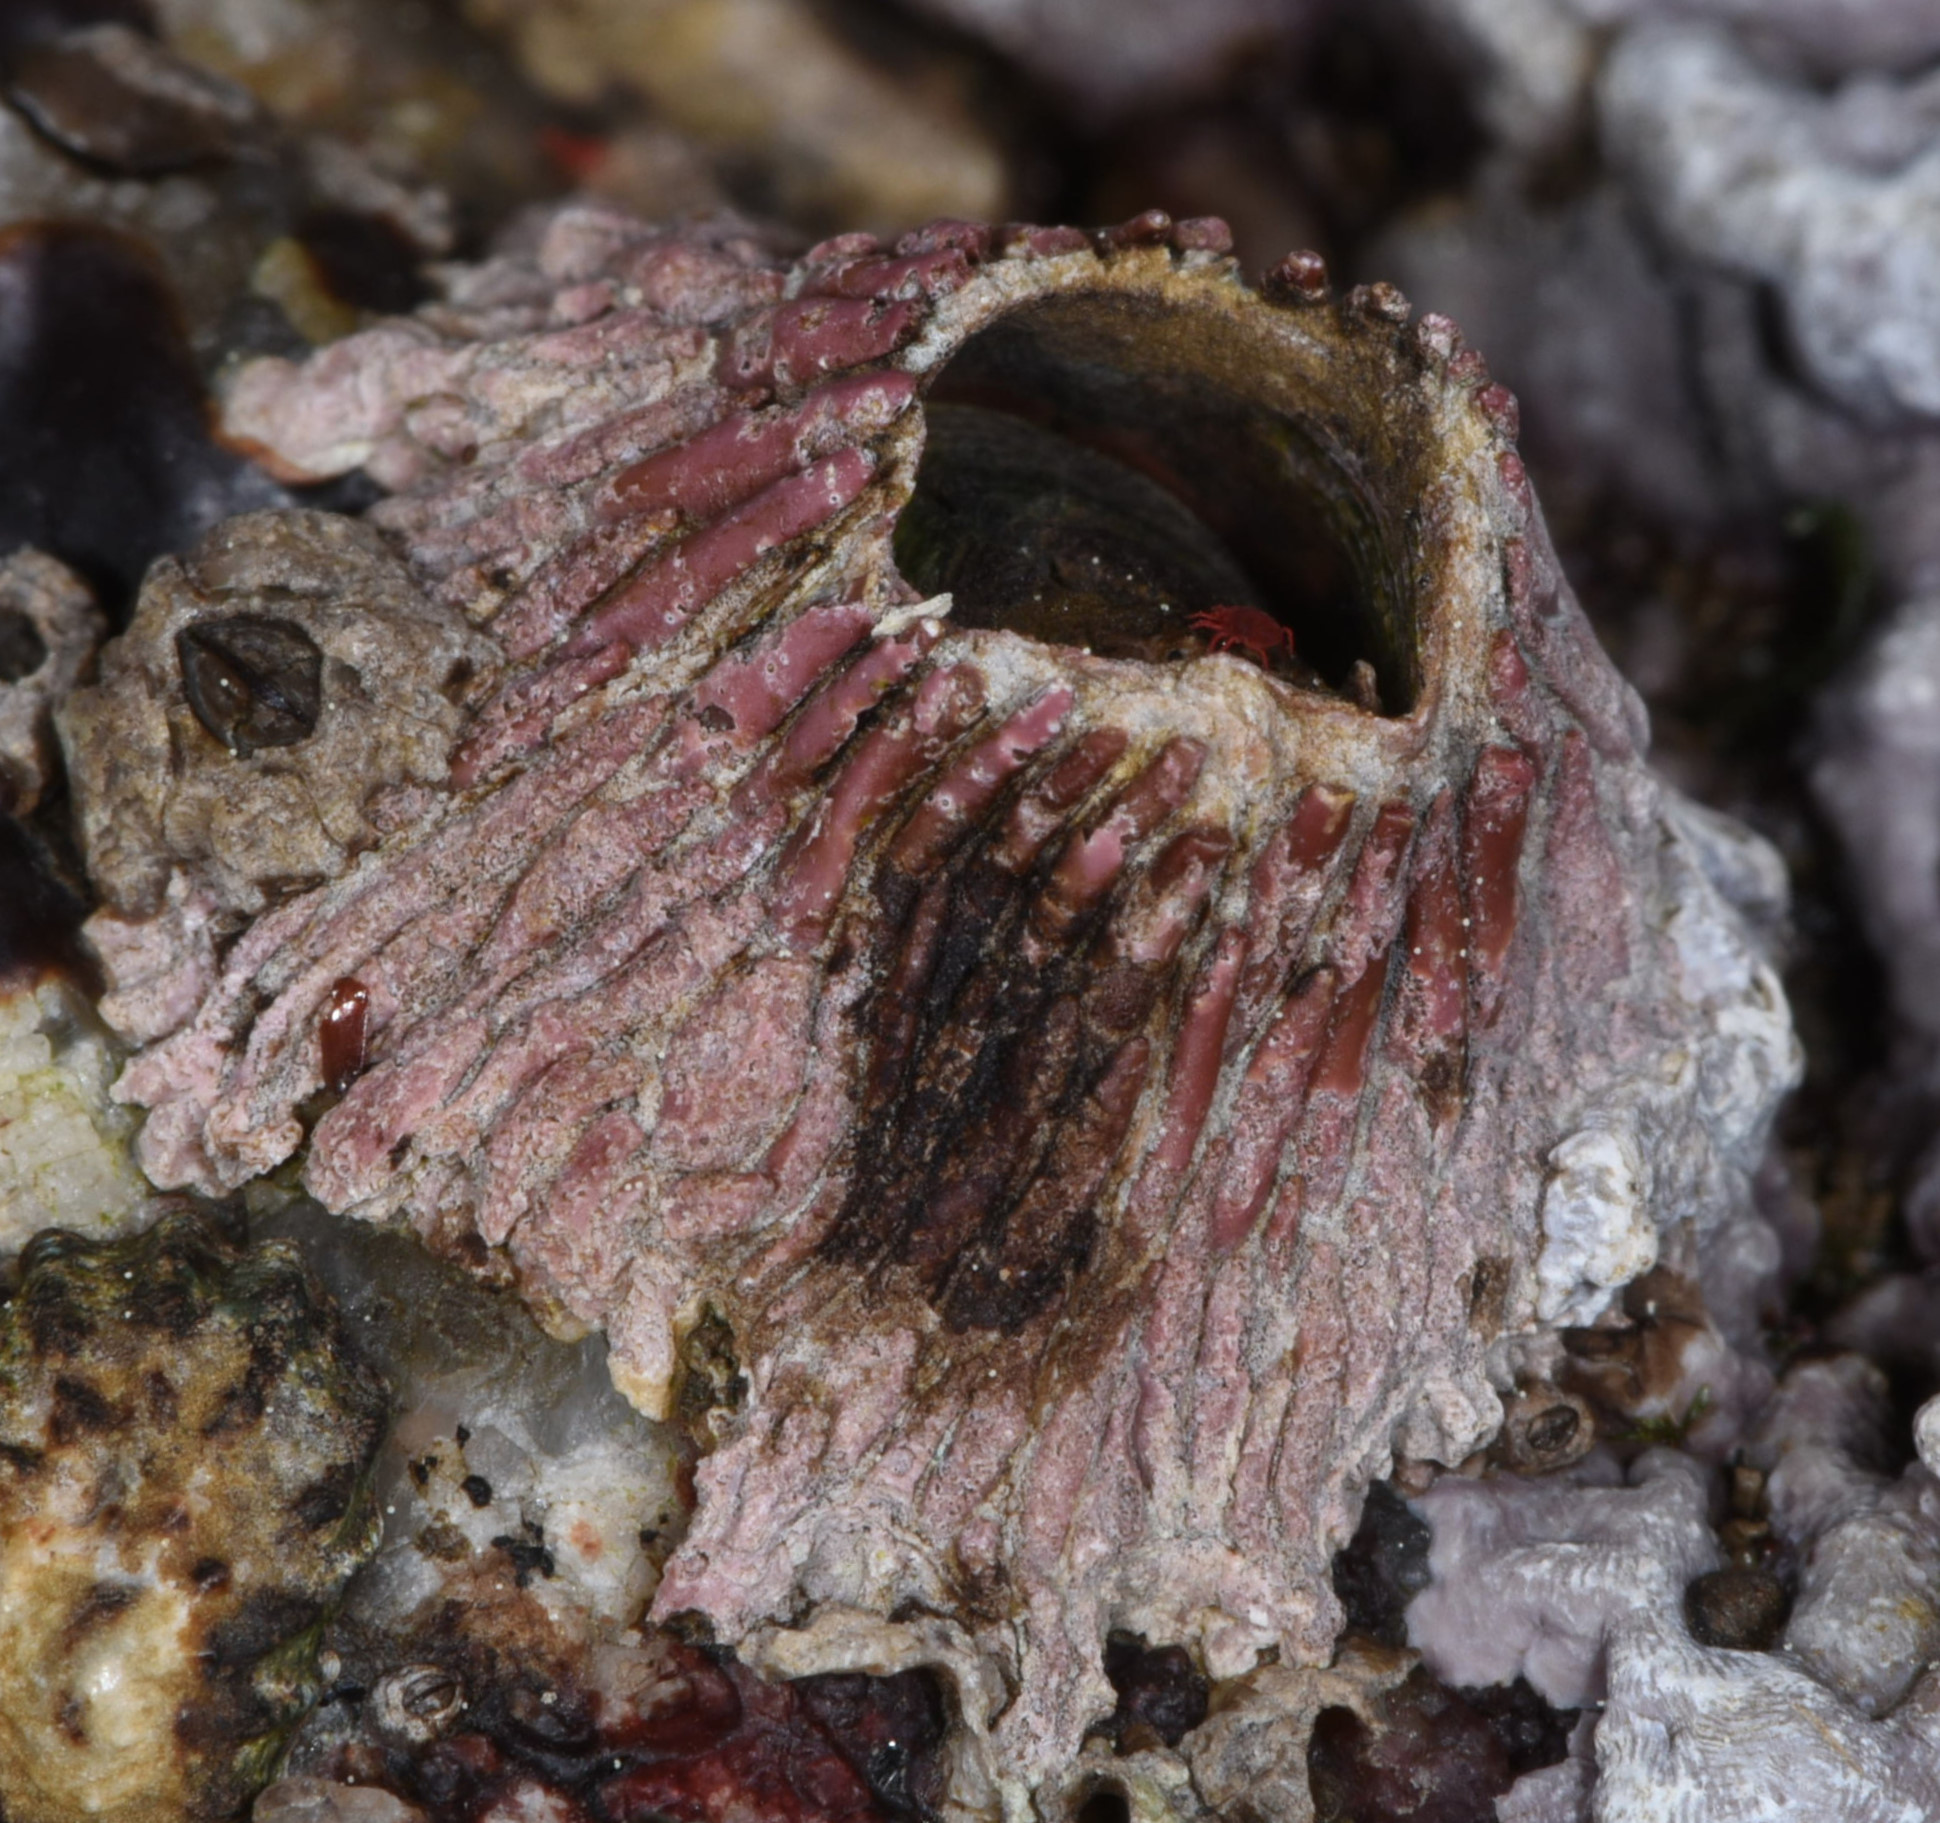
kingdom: Animalia
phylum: Arthropoda
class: Maxillopoda
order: Sessilia
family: Tetraclitidae
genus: Tetraclita
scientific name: Tetraclita rubescens
